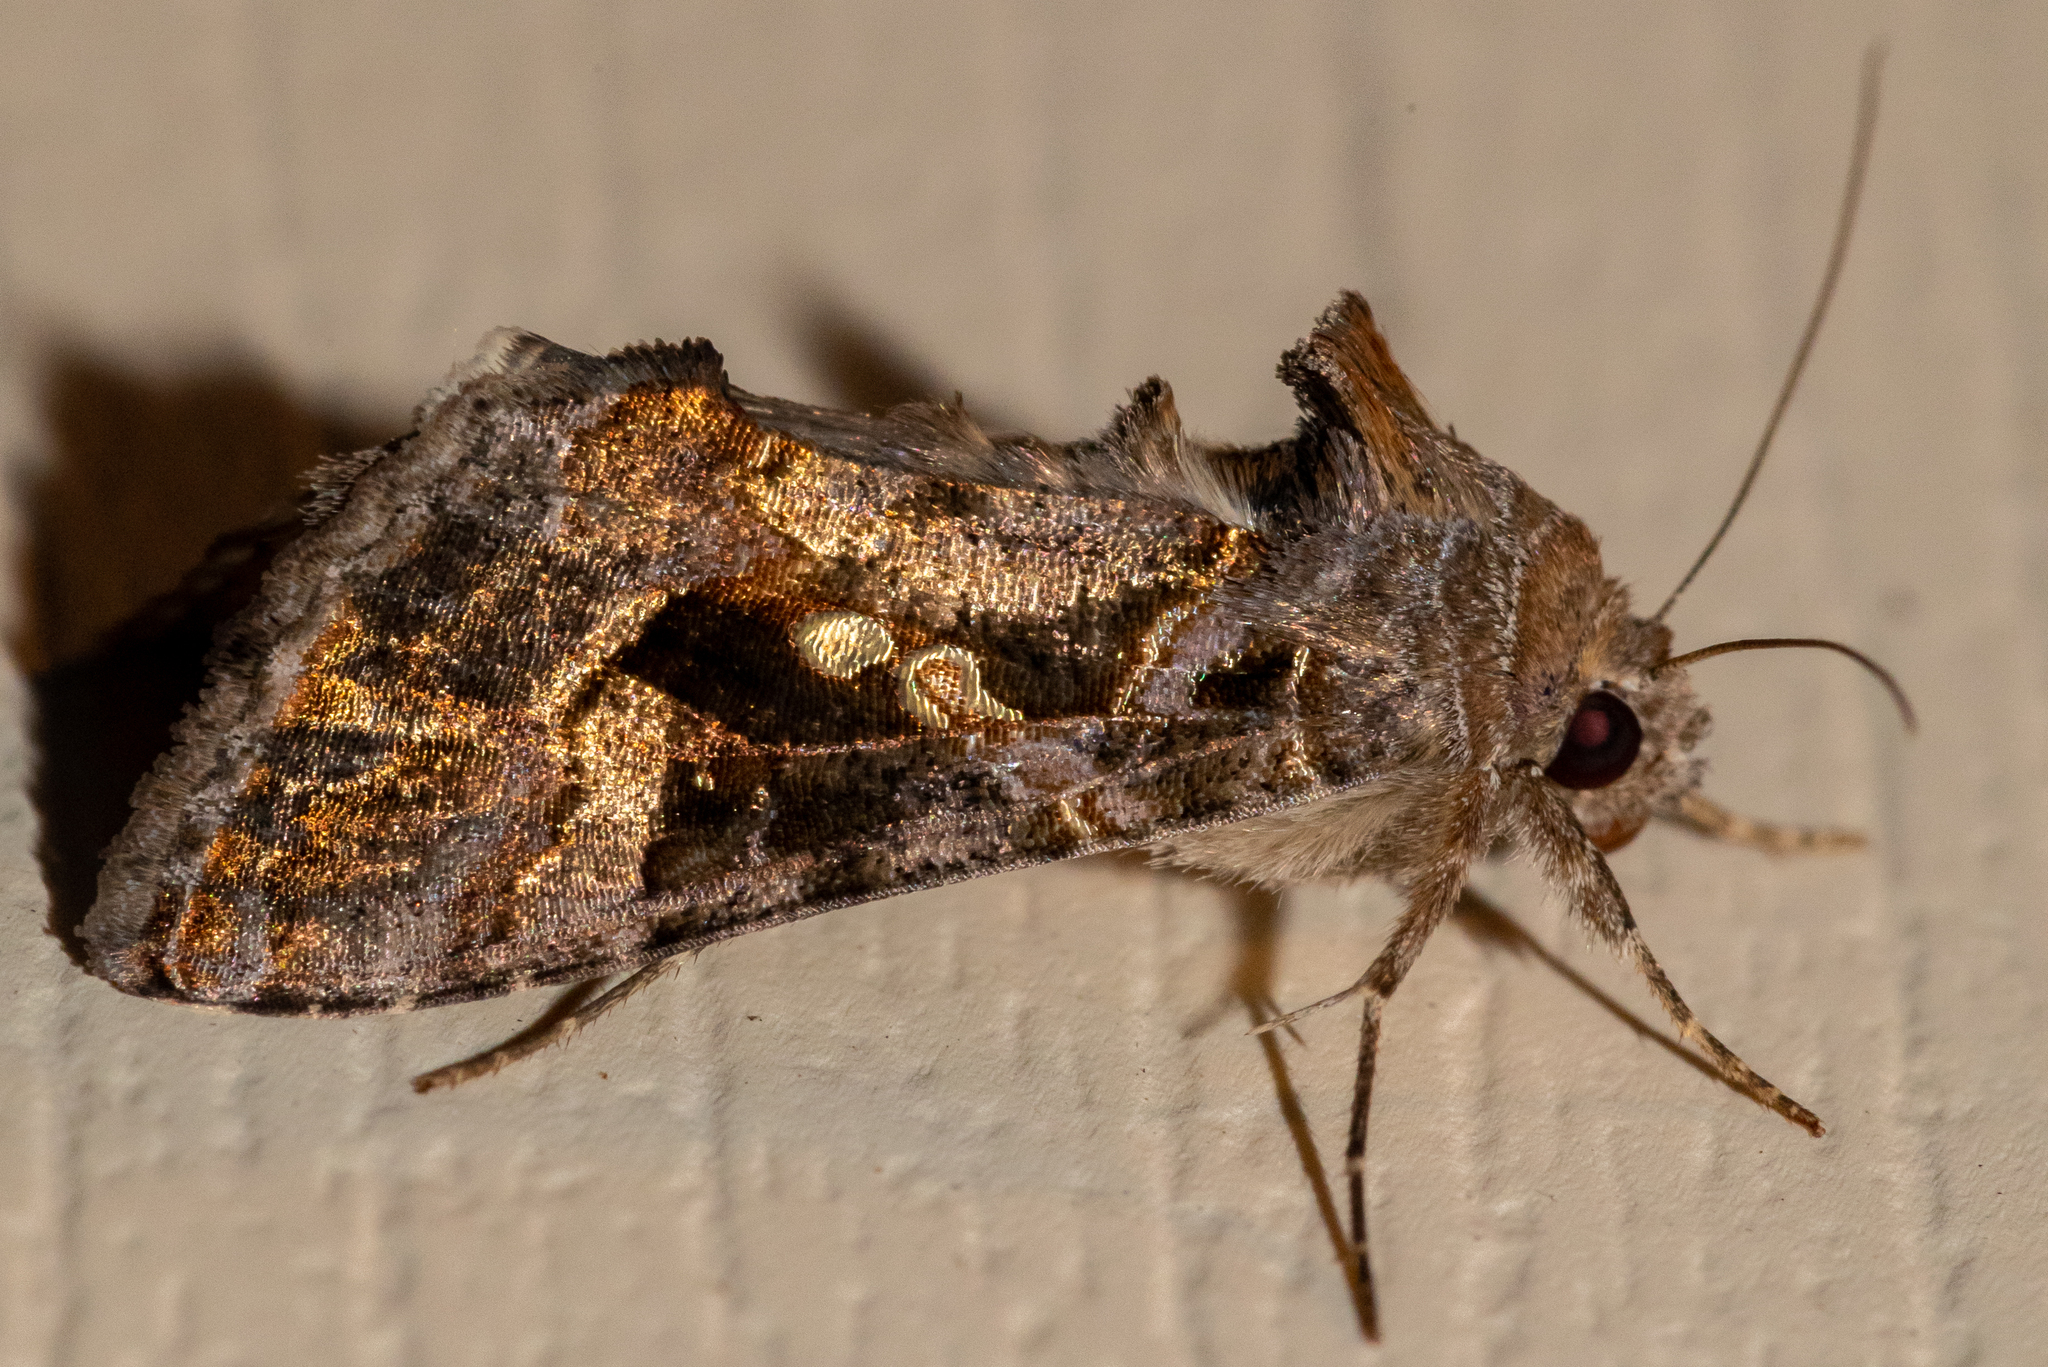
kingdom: Animalia
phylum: Arthropoda
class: Insecta
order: Lepidoptera
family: Noctuidae
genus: Chrysodeixis
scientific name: Chrysodeixis includens
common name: Cutworm moth
